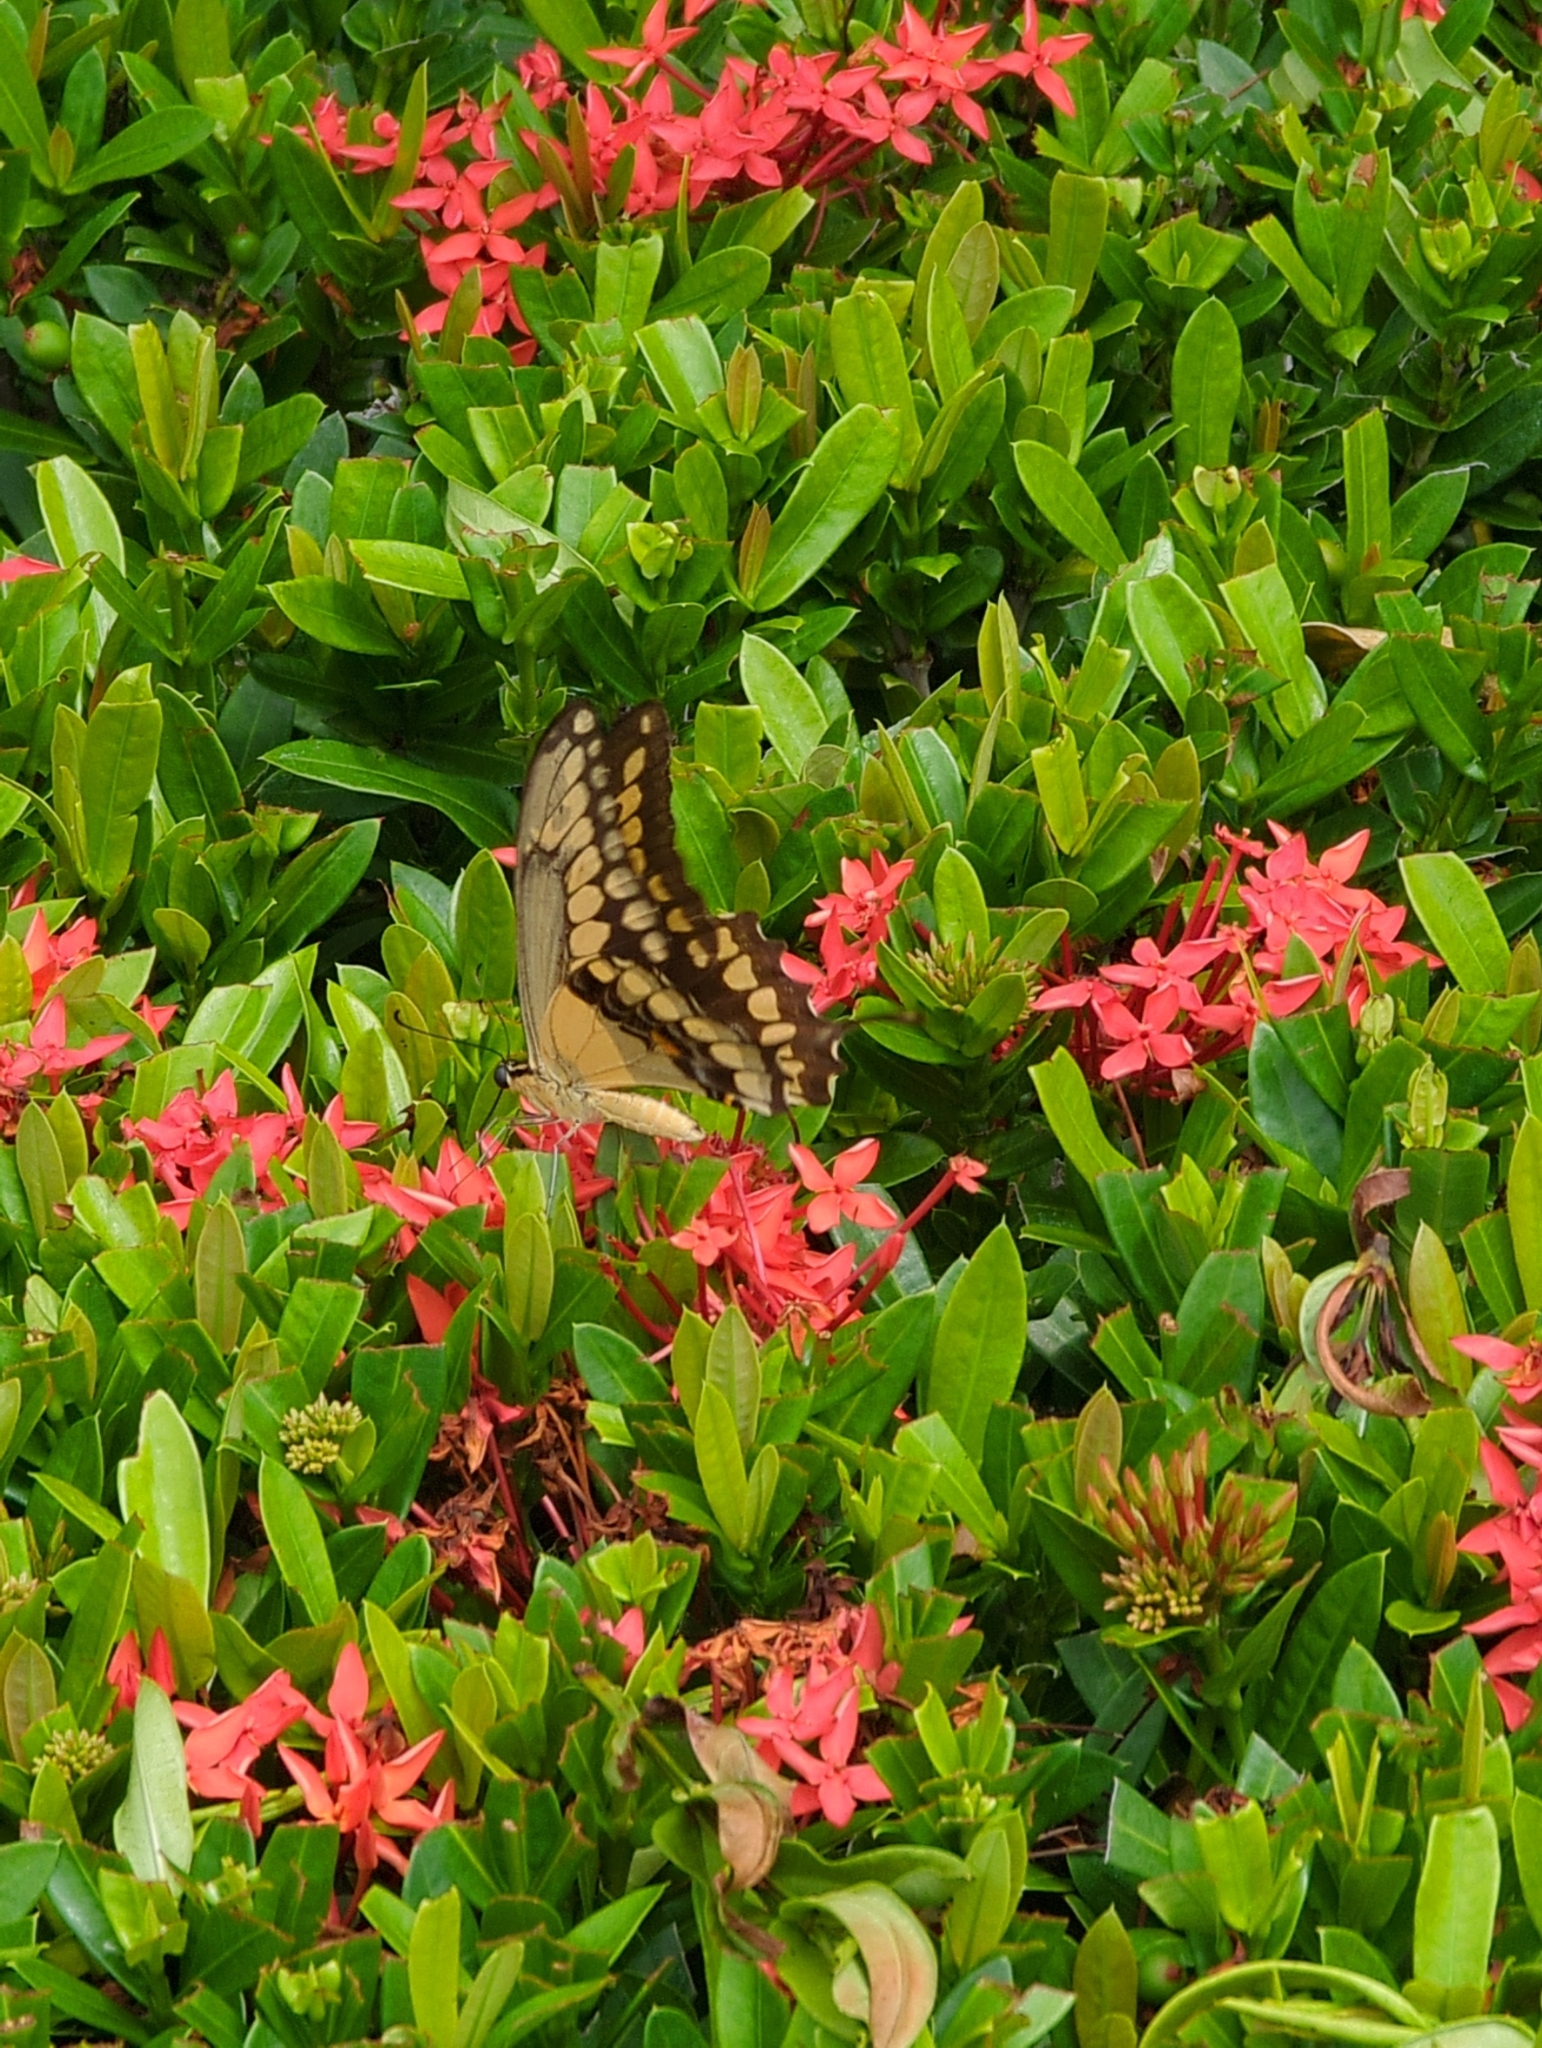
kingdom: Animalia
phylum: Arthropoda
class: Insecta
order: Lepidoptera
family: Papilionidae
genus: Papilio
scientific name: Papilio rumiko
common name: Western giant swallowtail
